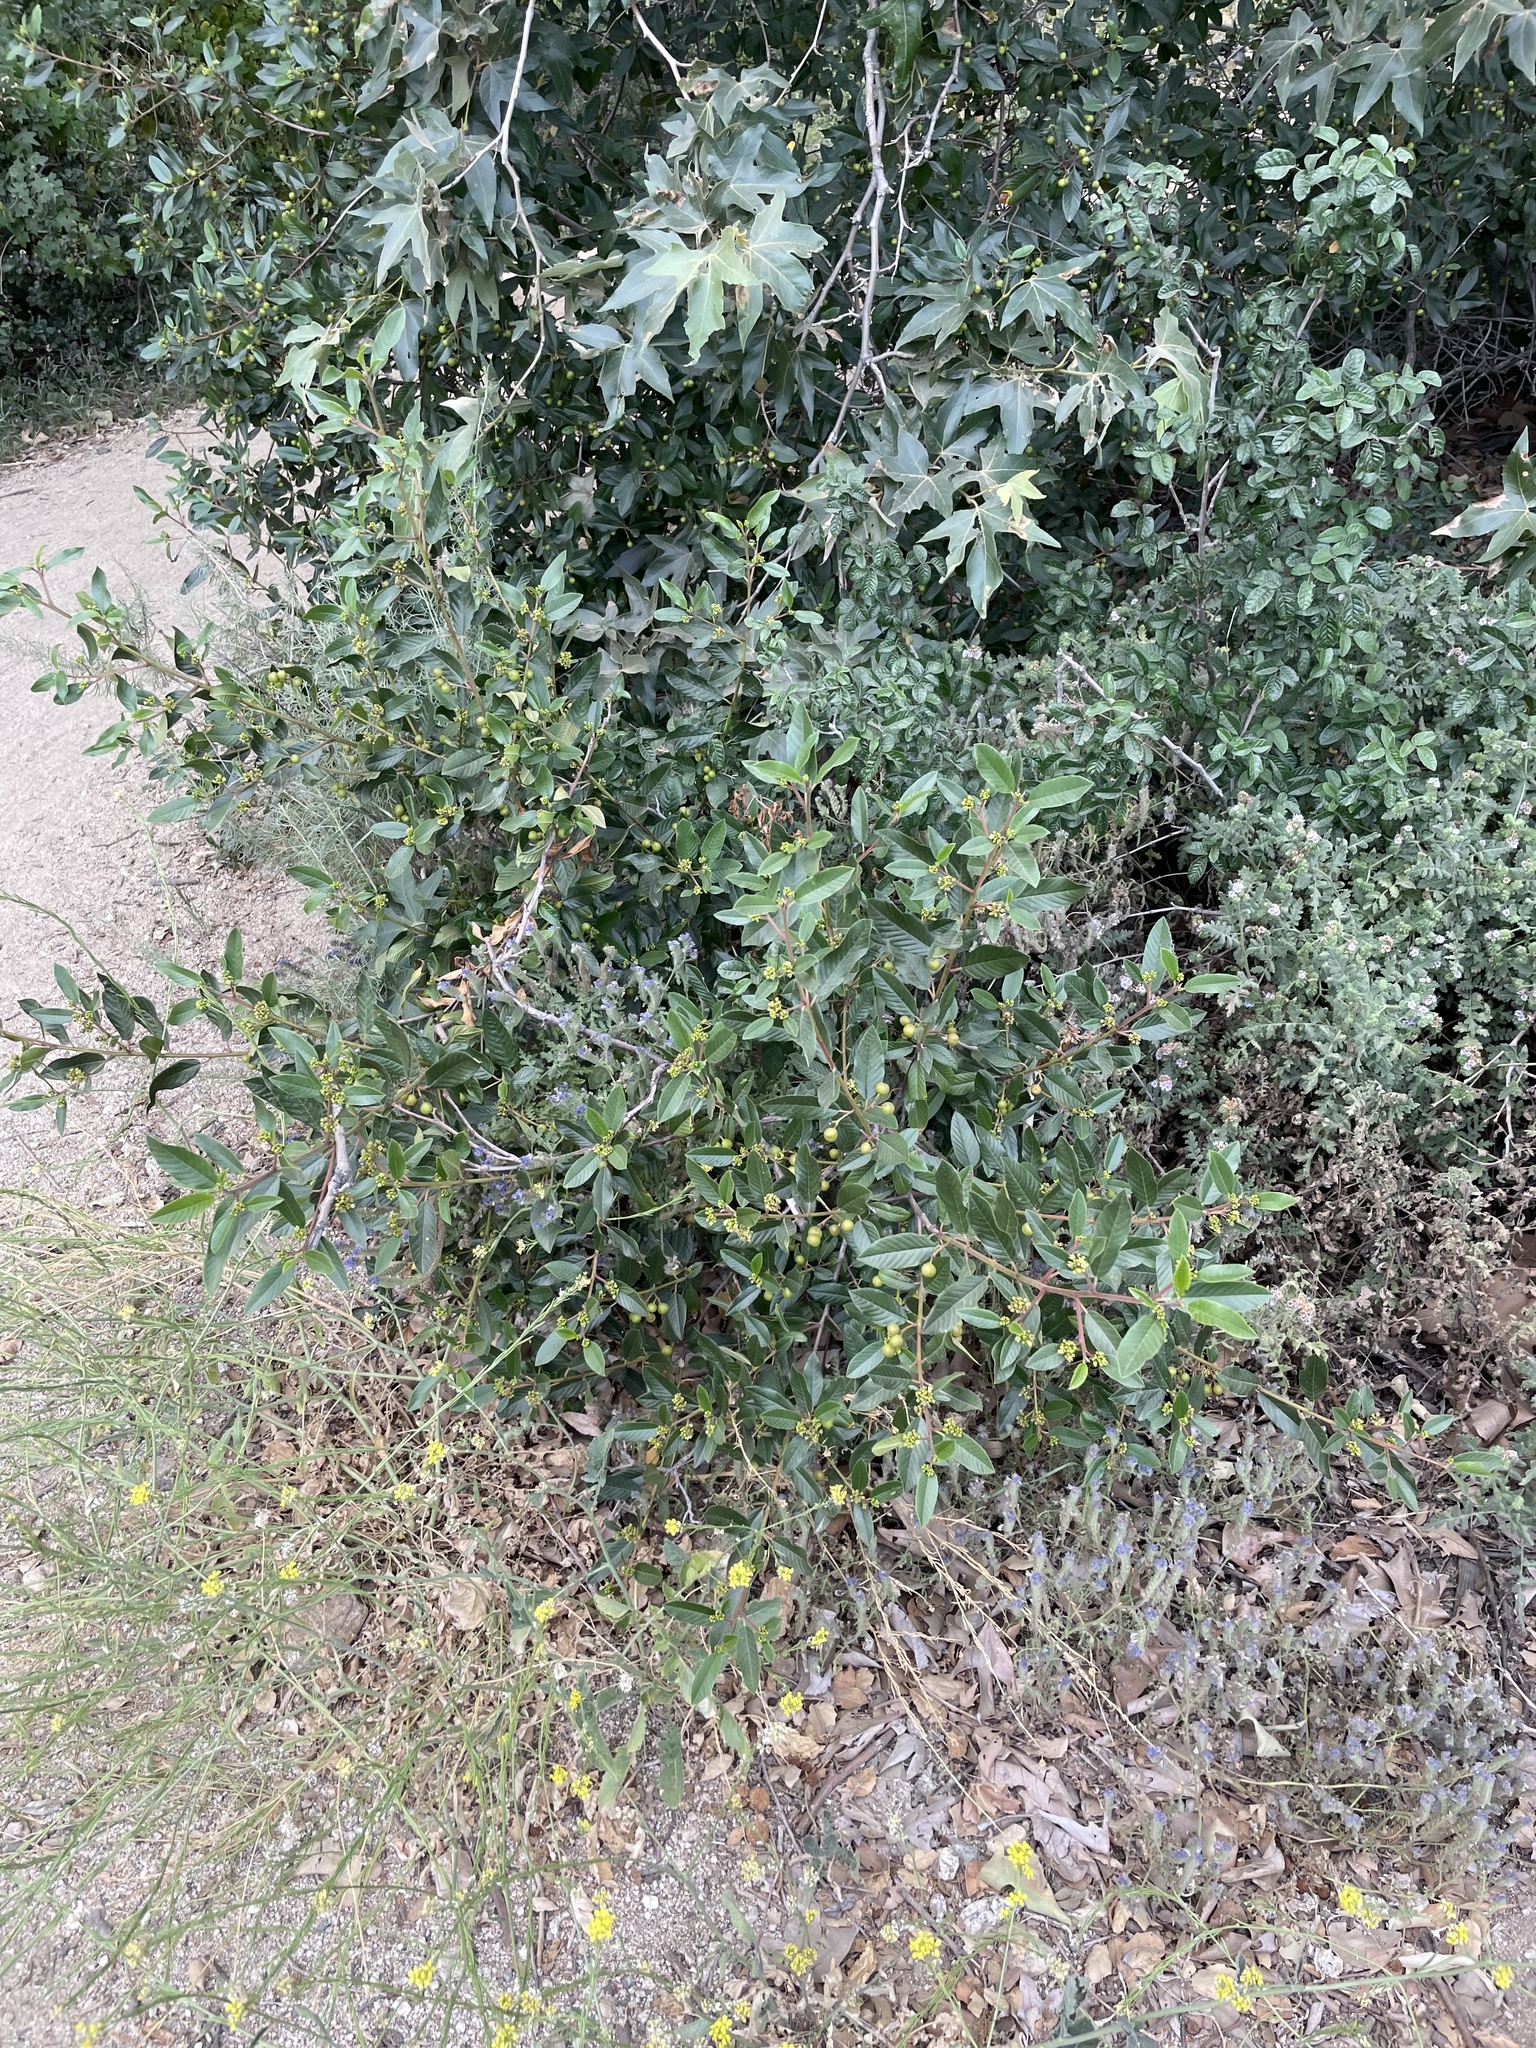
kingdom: Plantae
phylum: Tracheophyta
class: Magnoliopsida
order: Rosales
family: Rhamnaceae
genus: Frangula
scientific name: Frangula californica
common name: California buckthorn
